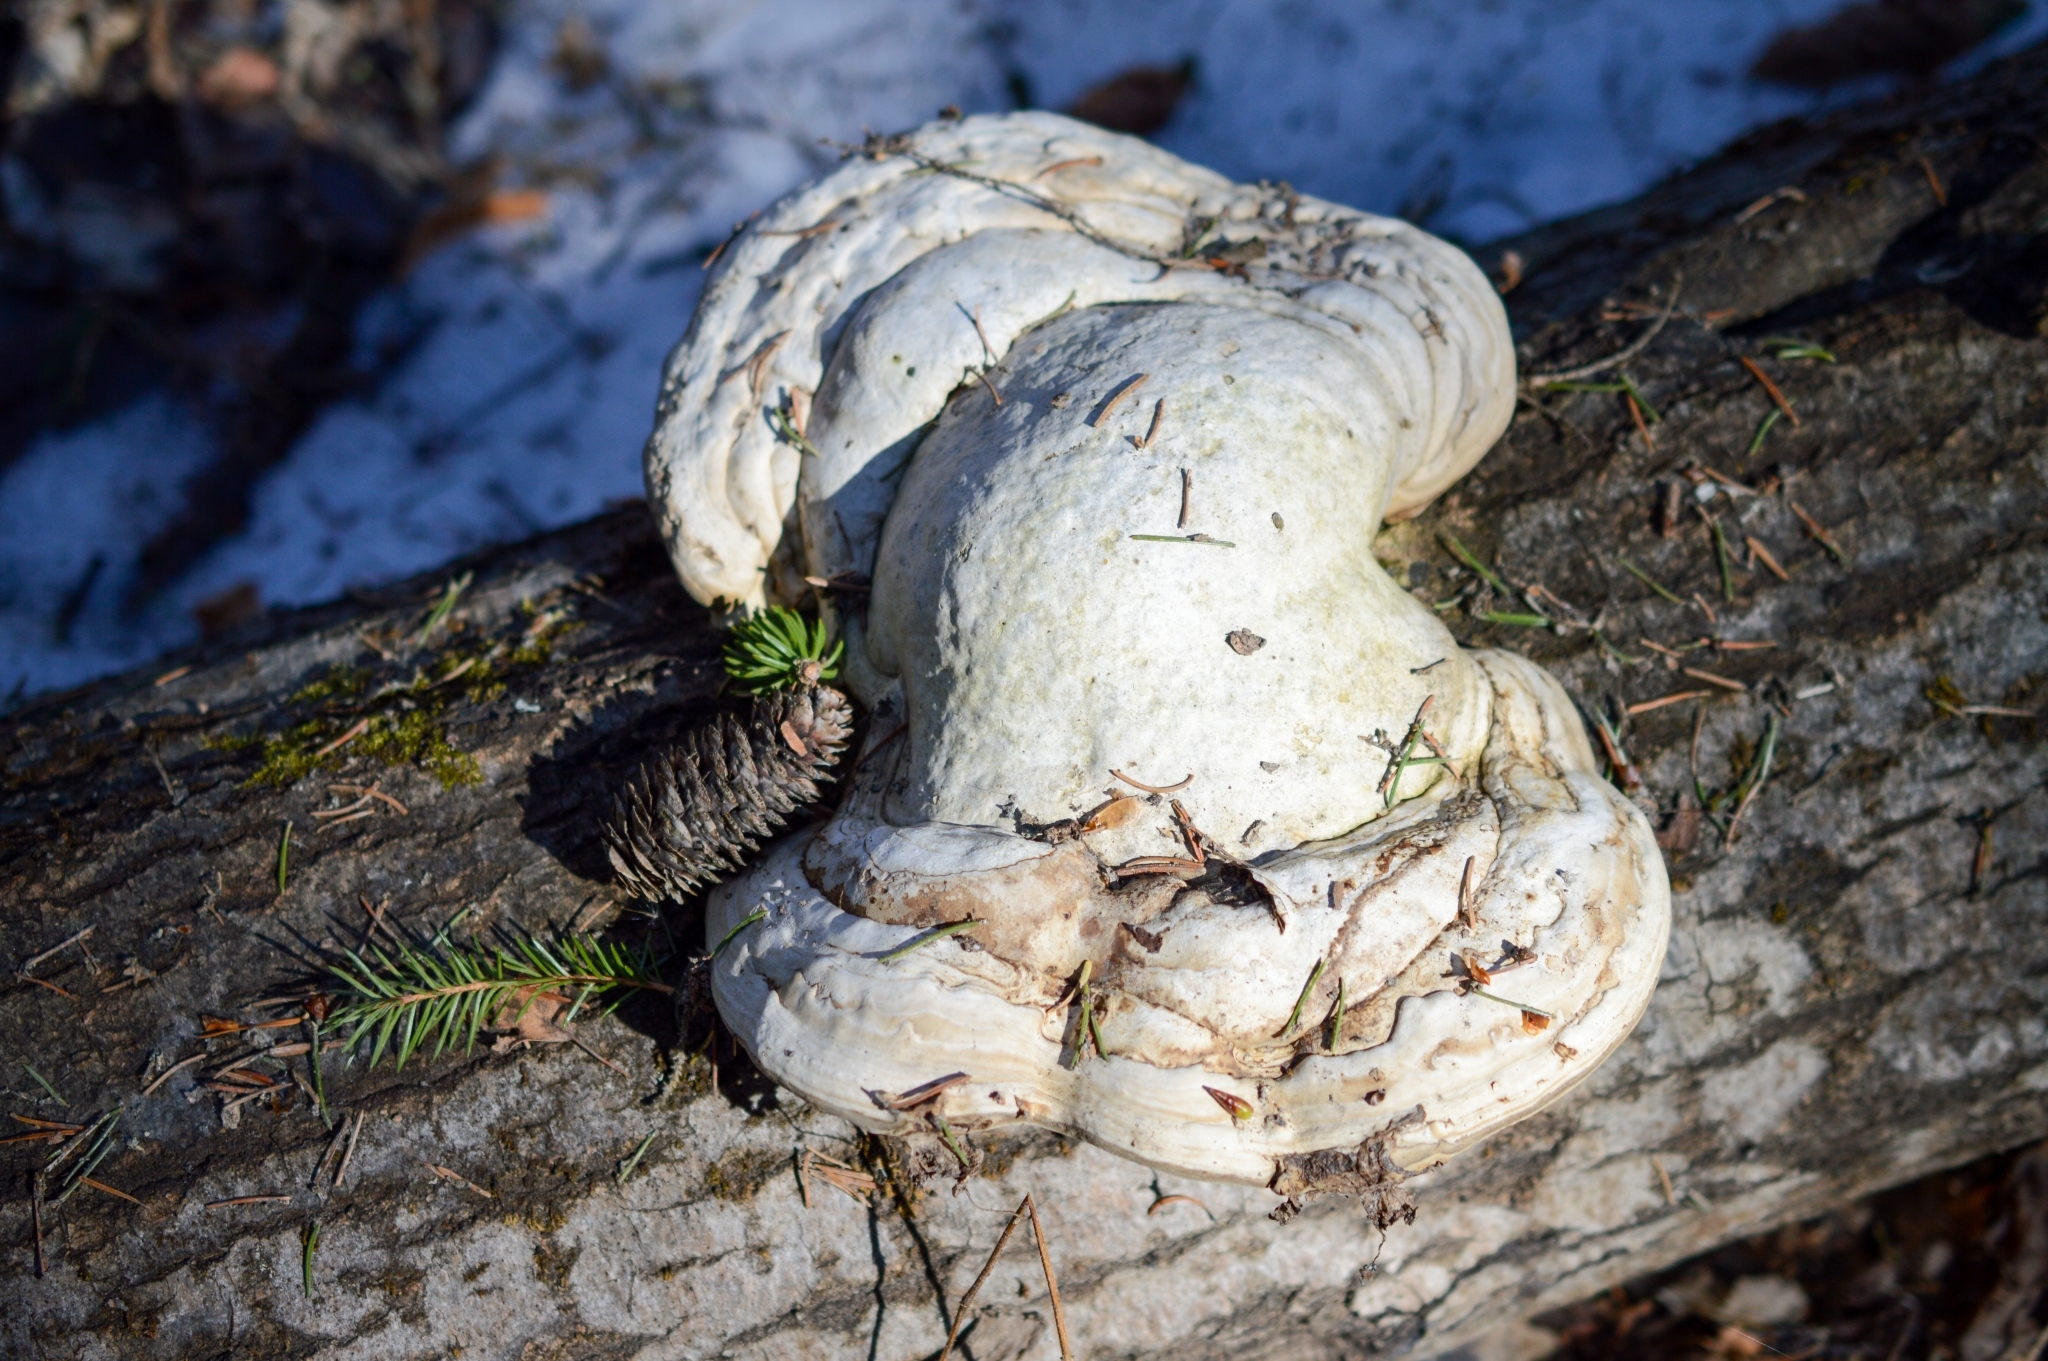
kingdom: Fungi
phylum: Basidiomycota
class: Agaricomycetes
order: Polyporales
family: Polyporaceae
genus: Fomes
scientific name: Fomes fomentarius
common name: Hoof fungus
